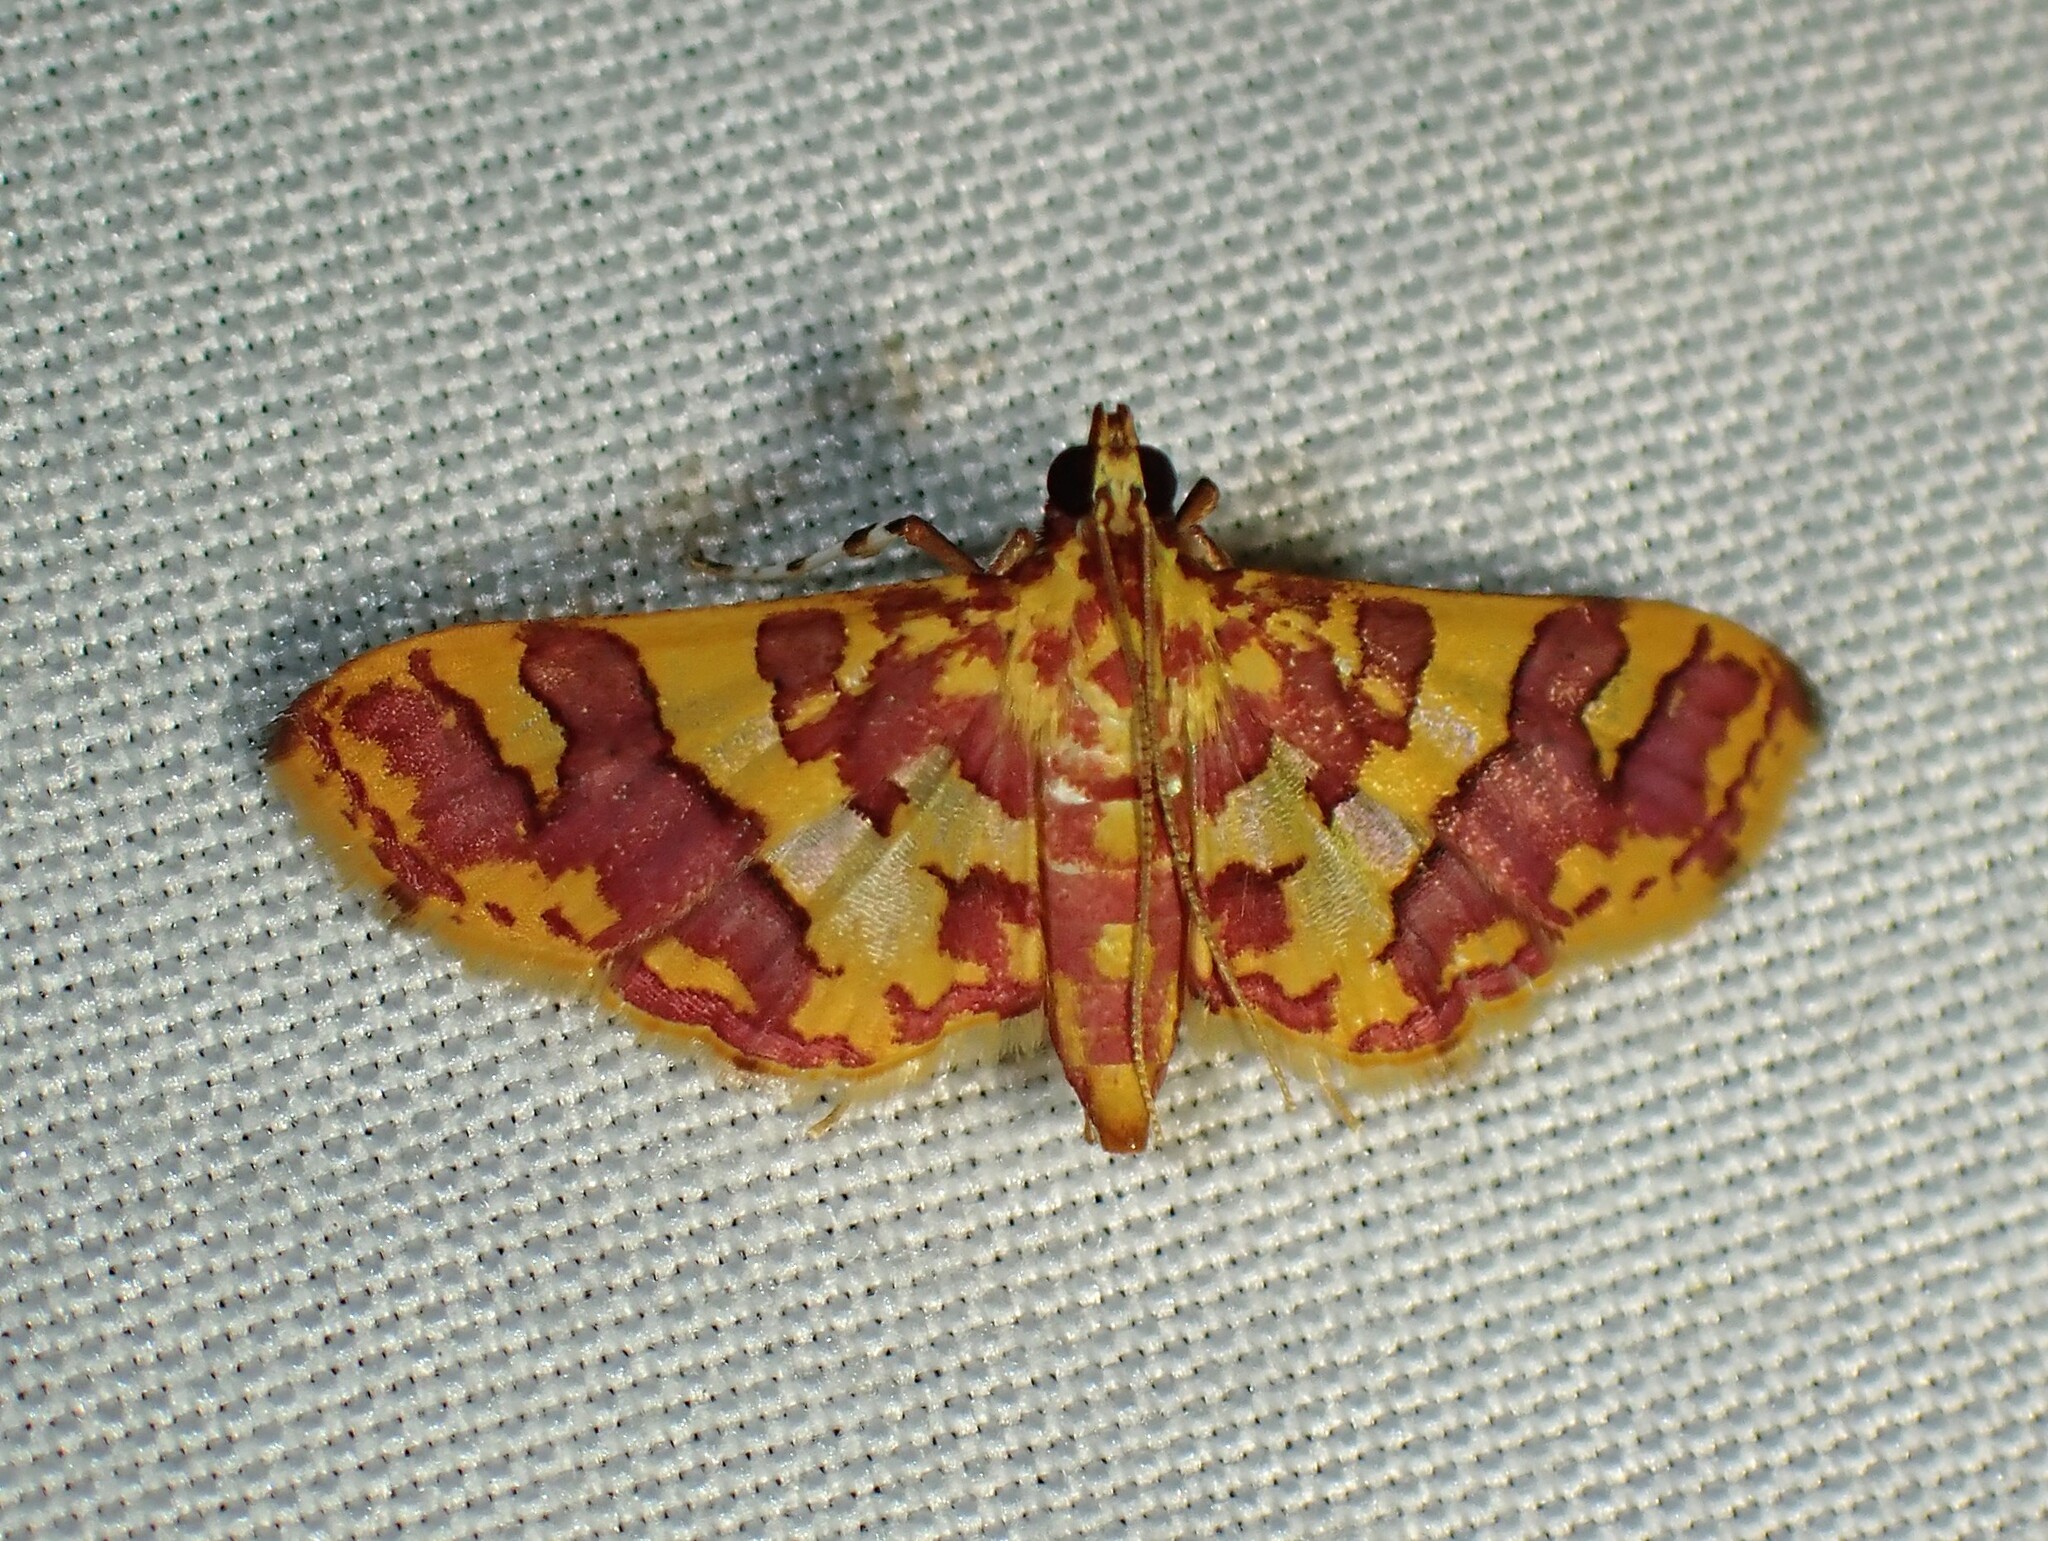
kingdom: Animalia
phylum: Arthropoda
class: Insecta
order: Lepidoptera
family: Crambidae
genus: Trithyris
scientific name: Trithyris Prenesta rubrocinctalis
